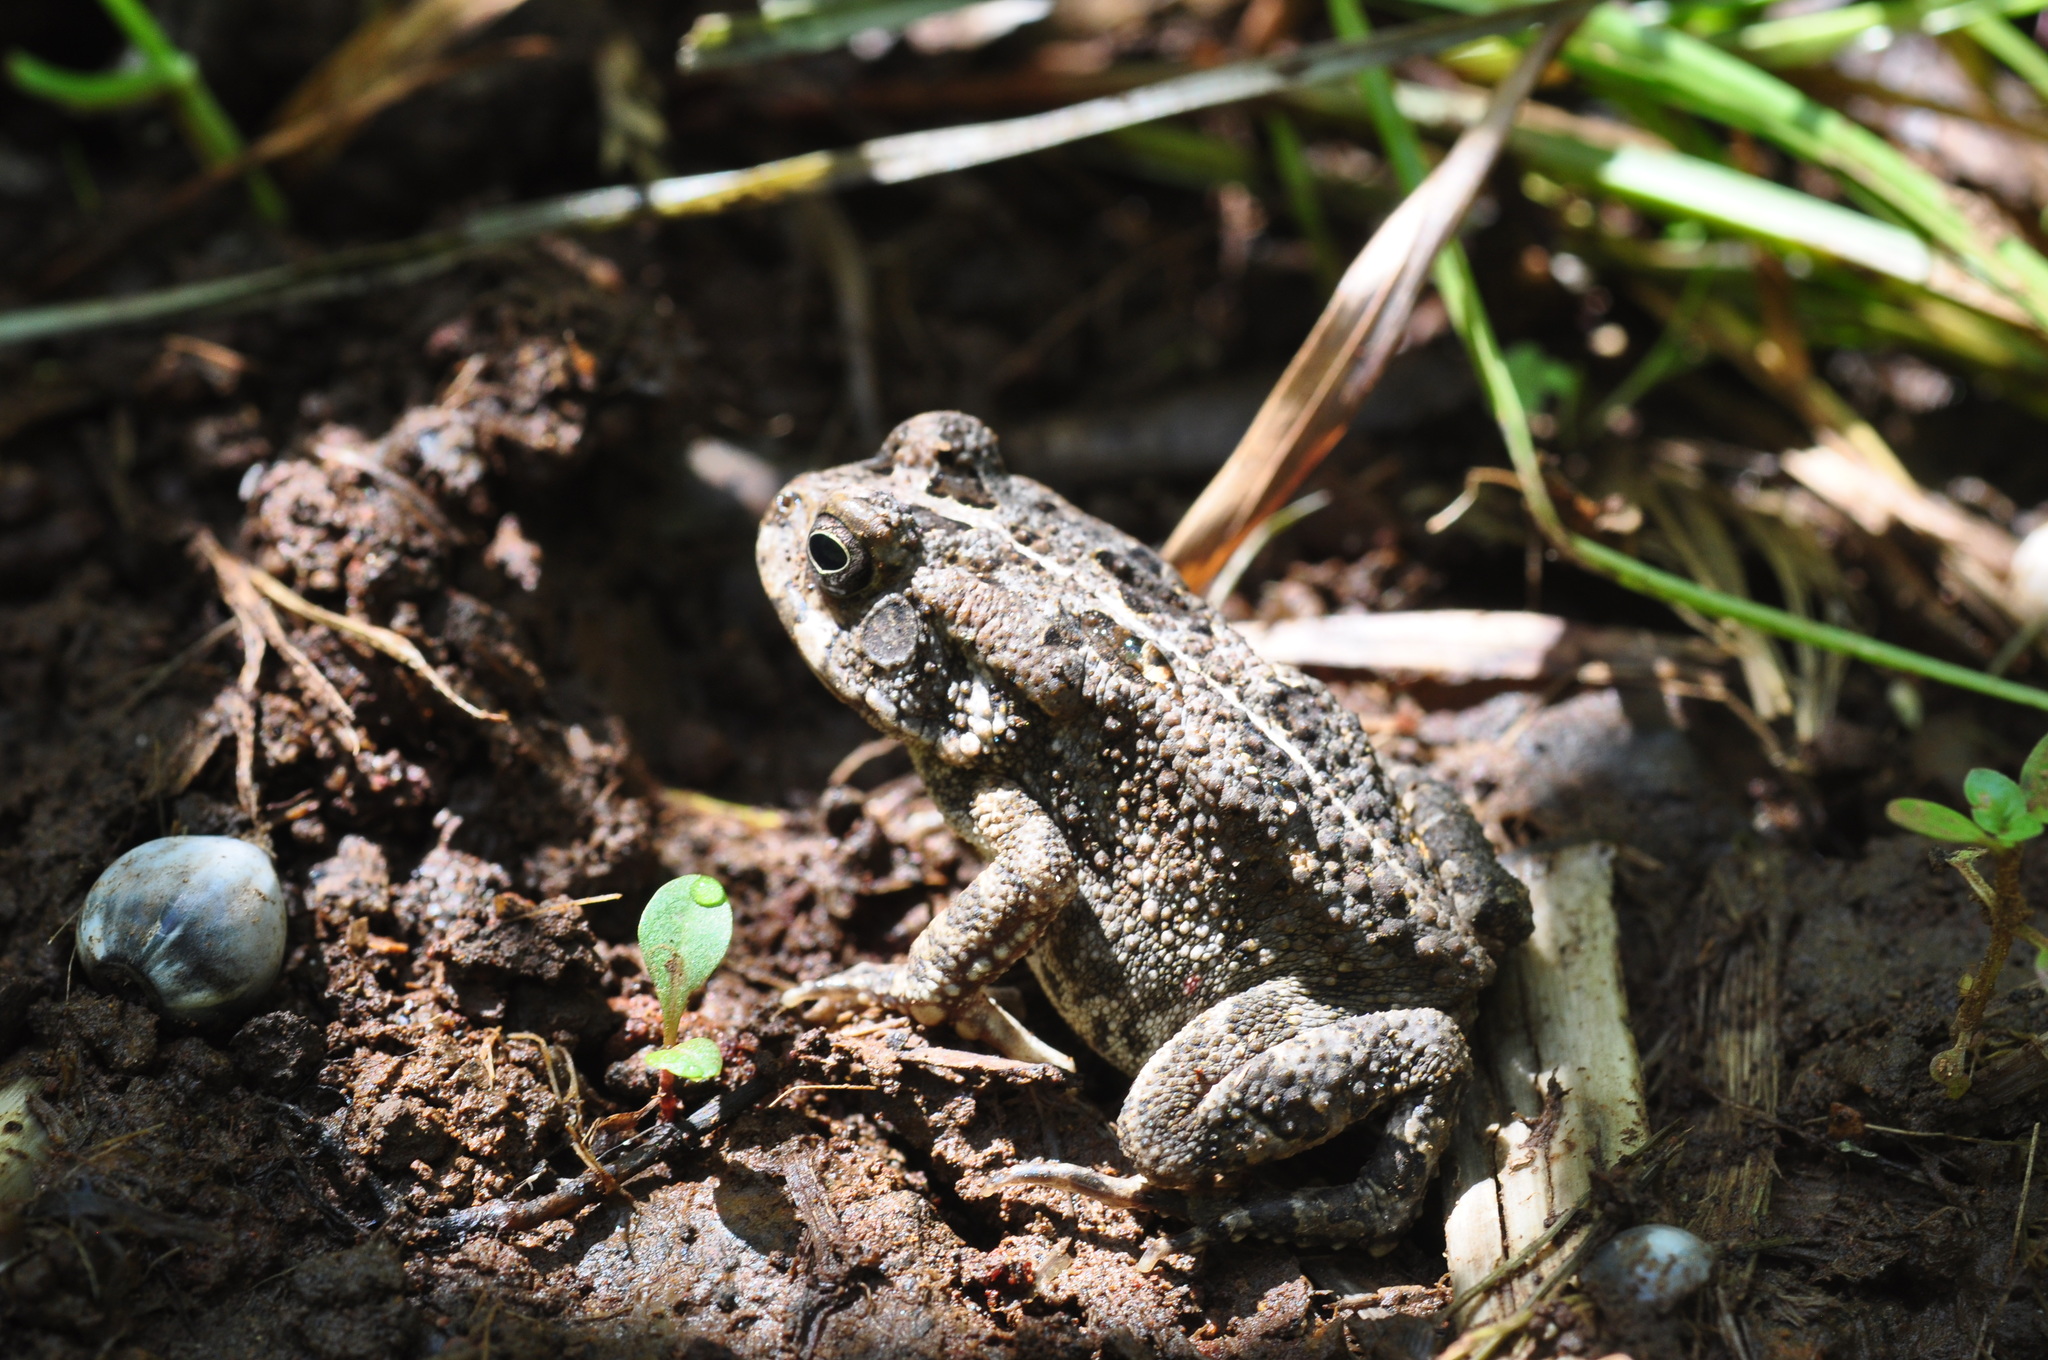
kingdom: Animalia
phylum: Chordata
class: Amphibia
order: Anura
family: Bufonidae
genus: Sclerophrys
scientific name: Sclerophrys gutturalis
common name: African common toad
